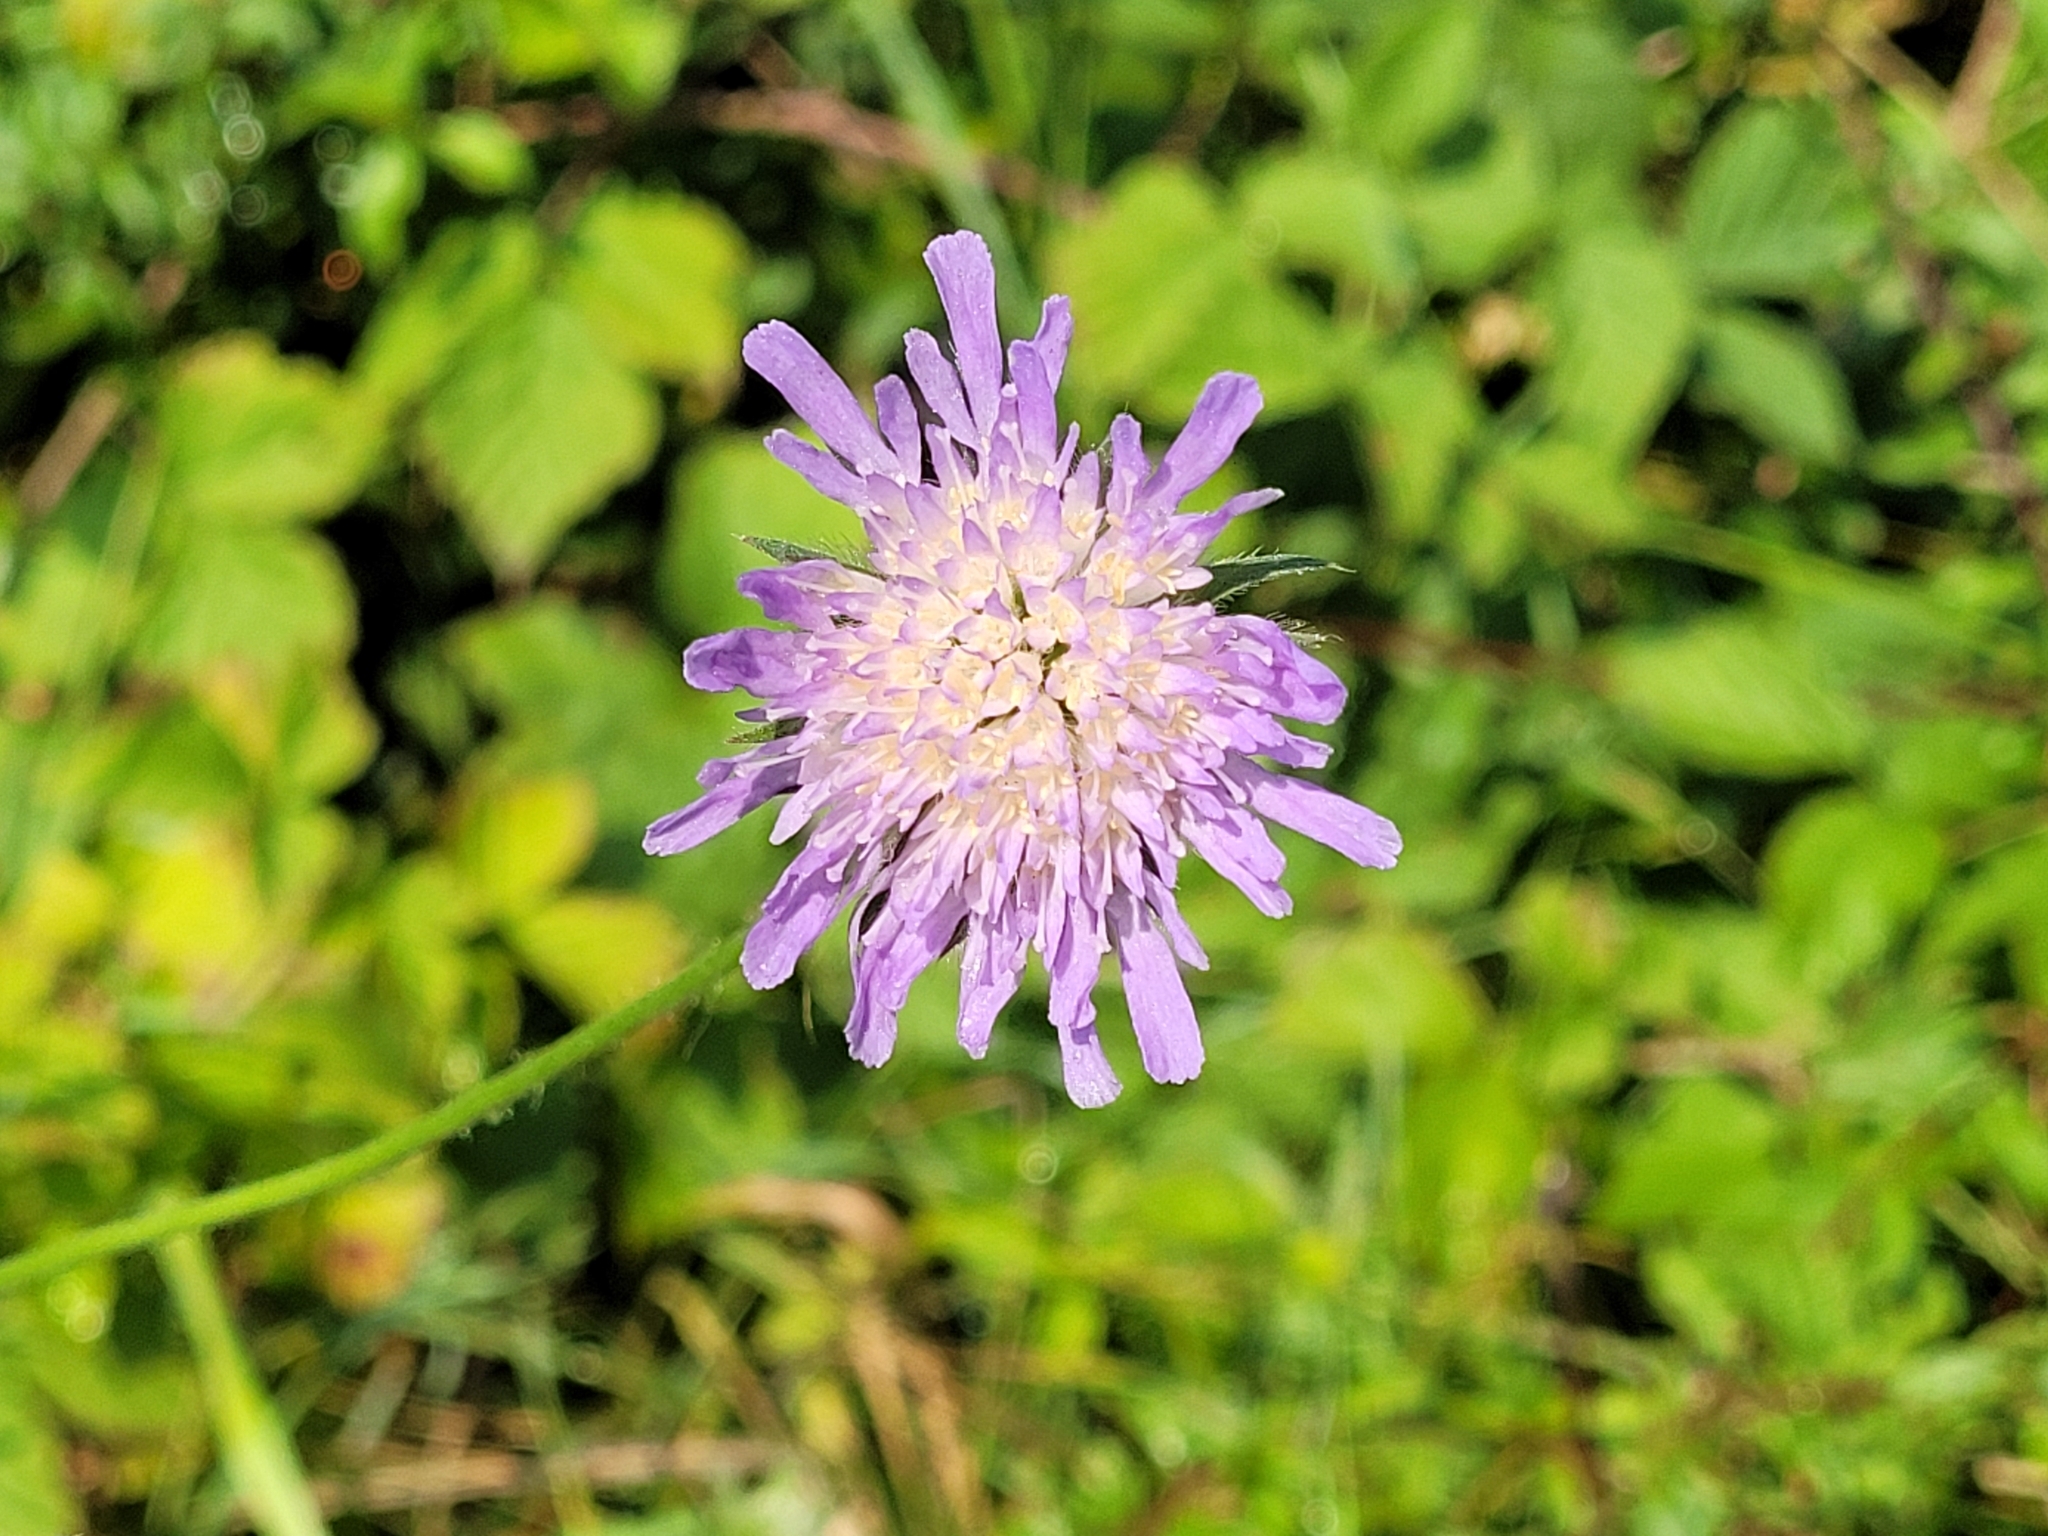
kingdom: Plantae
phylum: Tracheophyta
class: Magnoliopsida
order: Dipsacales
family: Caprifoliaceae
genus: Knautia
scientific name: Knautia arvensis
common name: Field scabiosa
